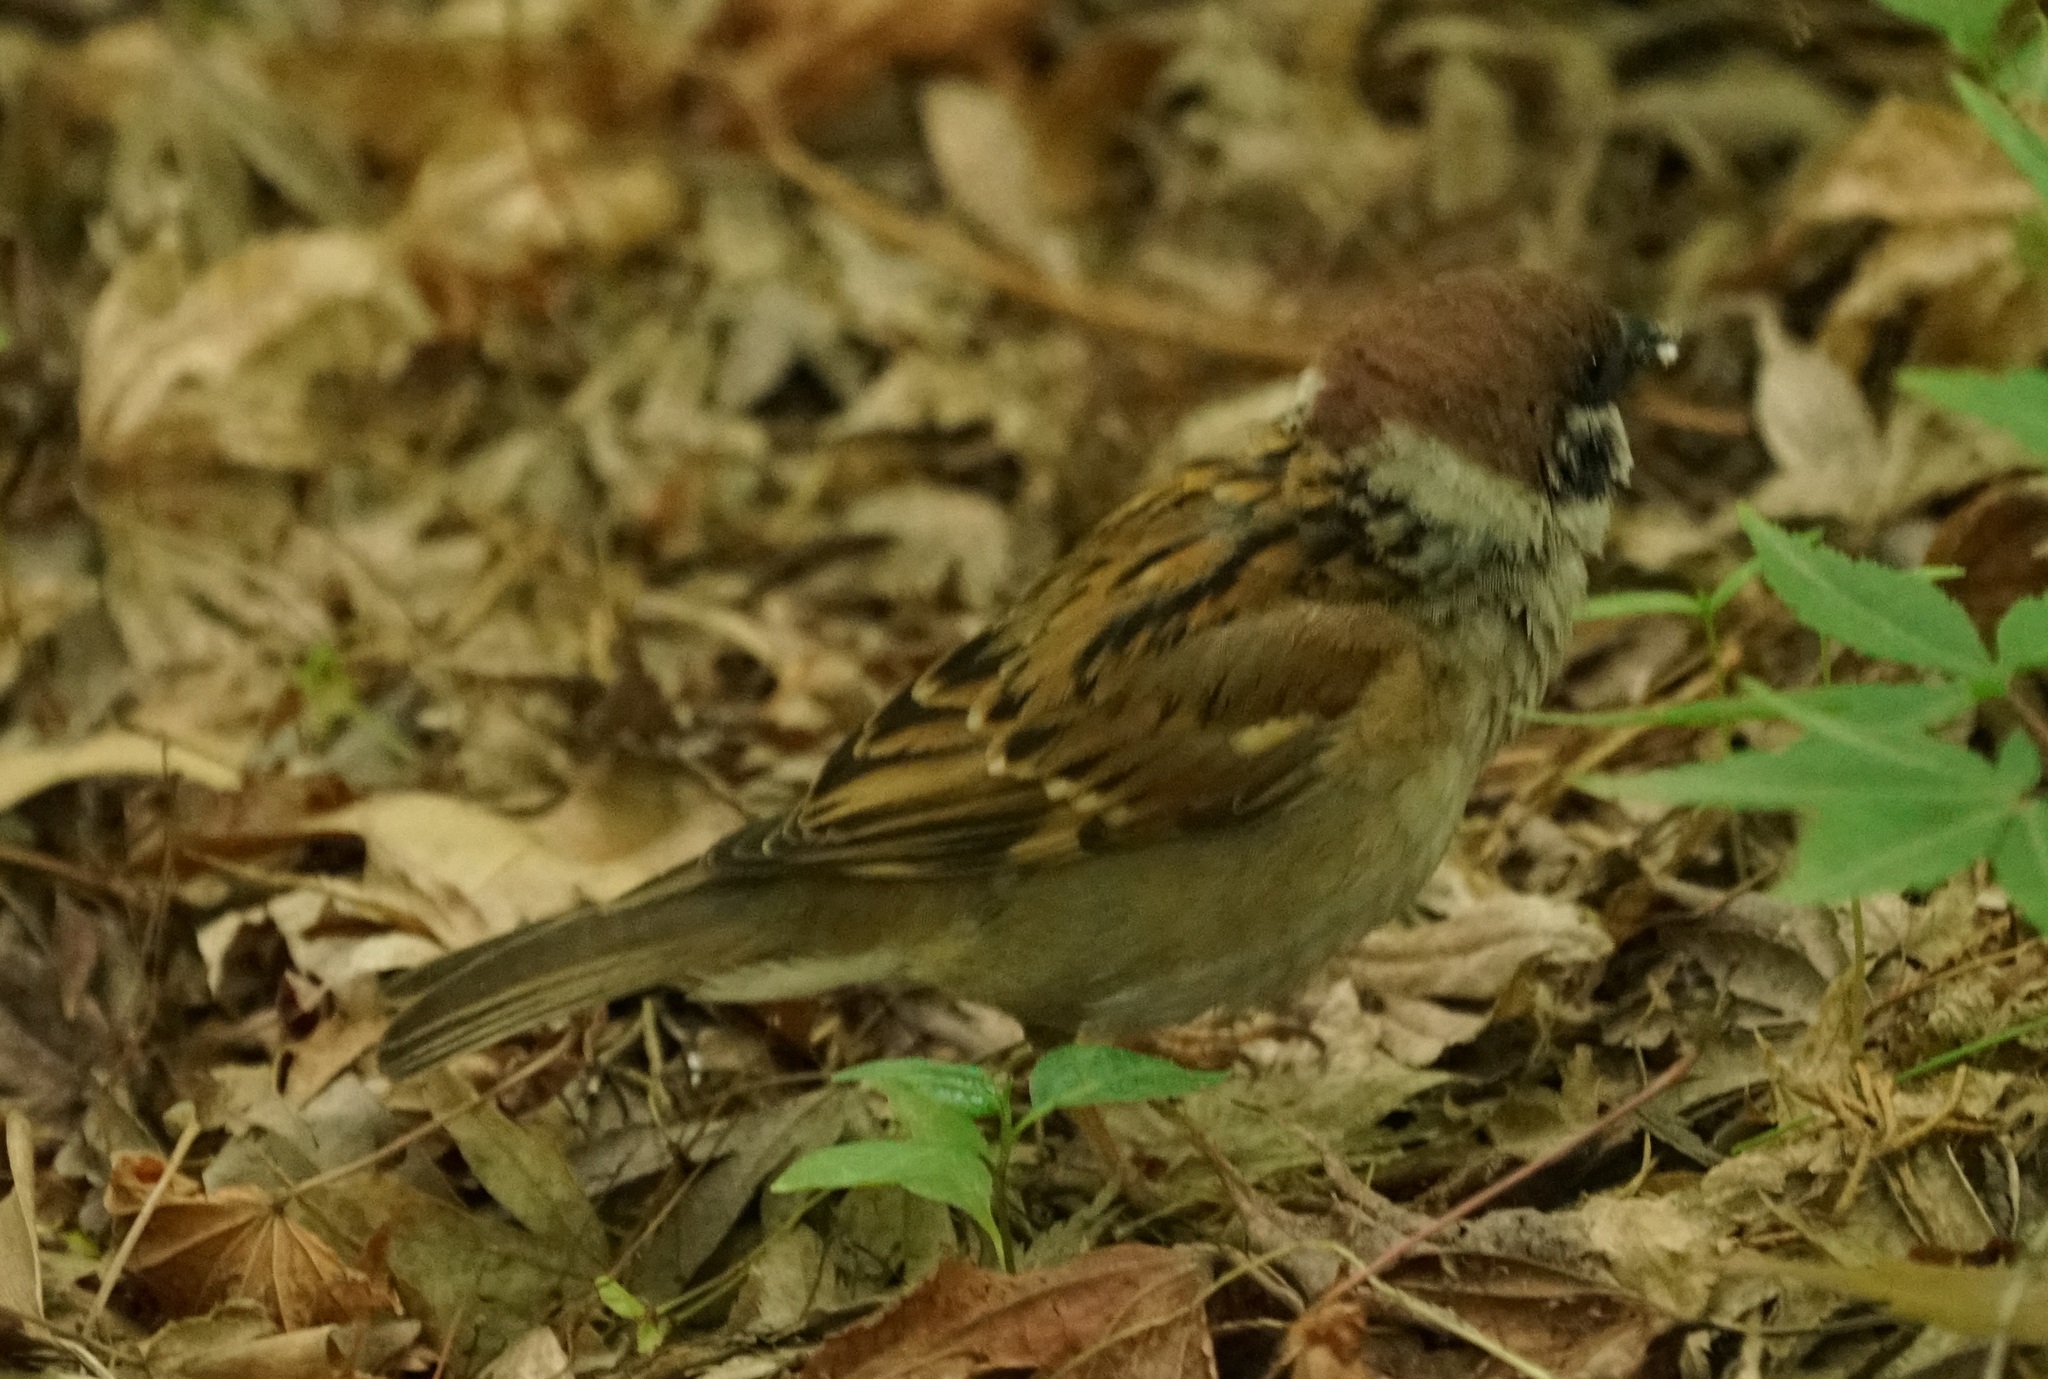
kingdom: Animalia
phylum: Chordata
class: Aves
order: Passeriformes
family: Passeridae
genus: Passer
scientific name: Passer montanus
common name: Eurasian tree sparrow
